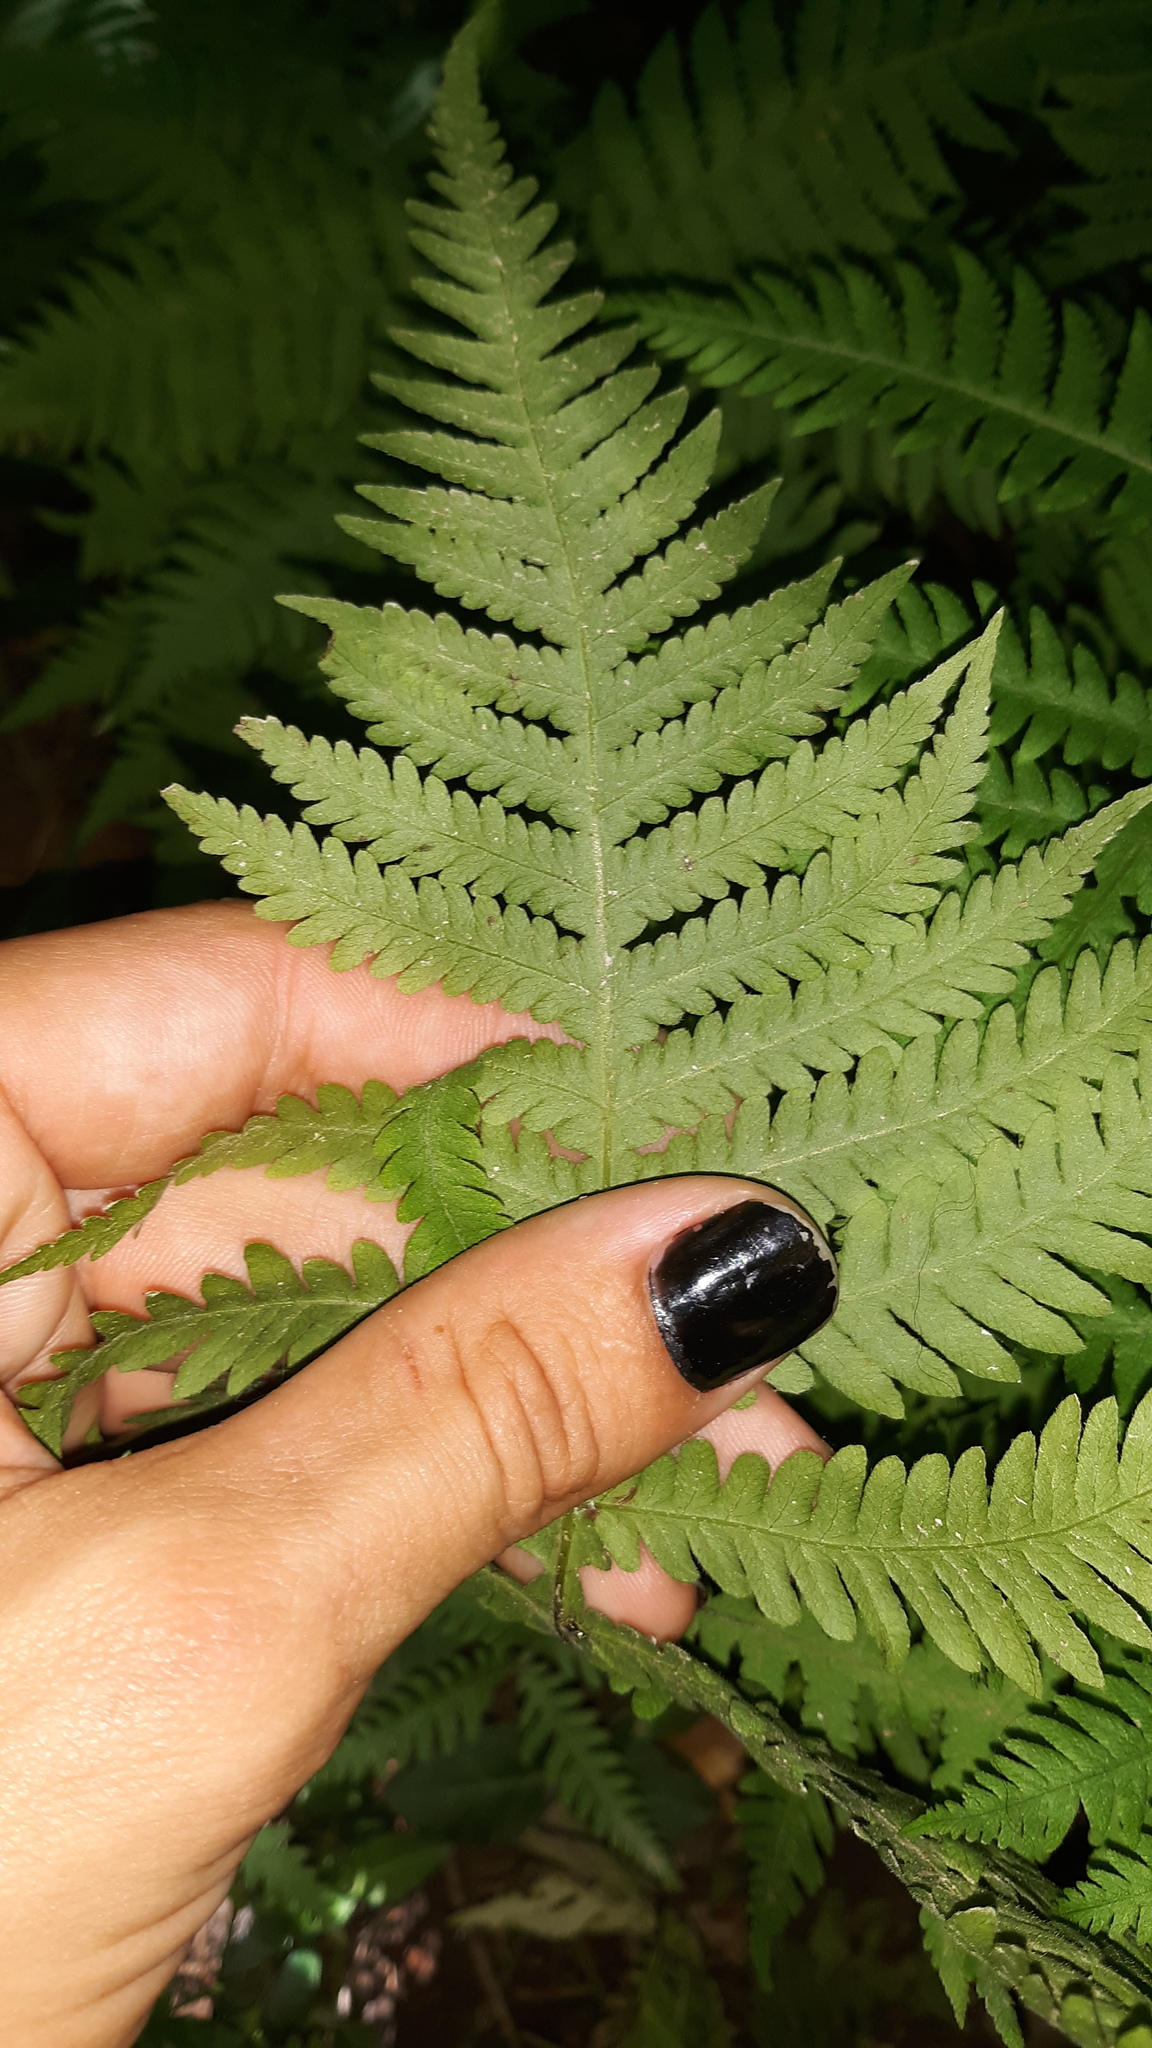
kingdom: Plantae
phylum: Tracheophyta
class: Polypodiopsida
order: Polypodiales
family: Thelypteridaceae
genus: Phegopteris
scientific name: Phegopteris hexagonoptera
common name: Broad beech fern
